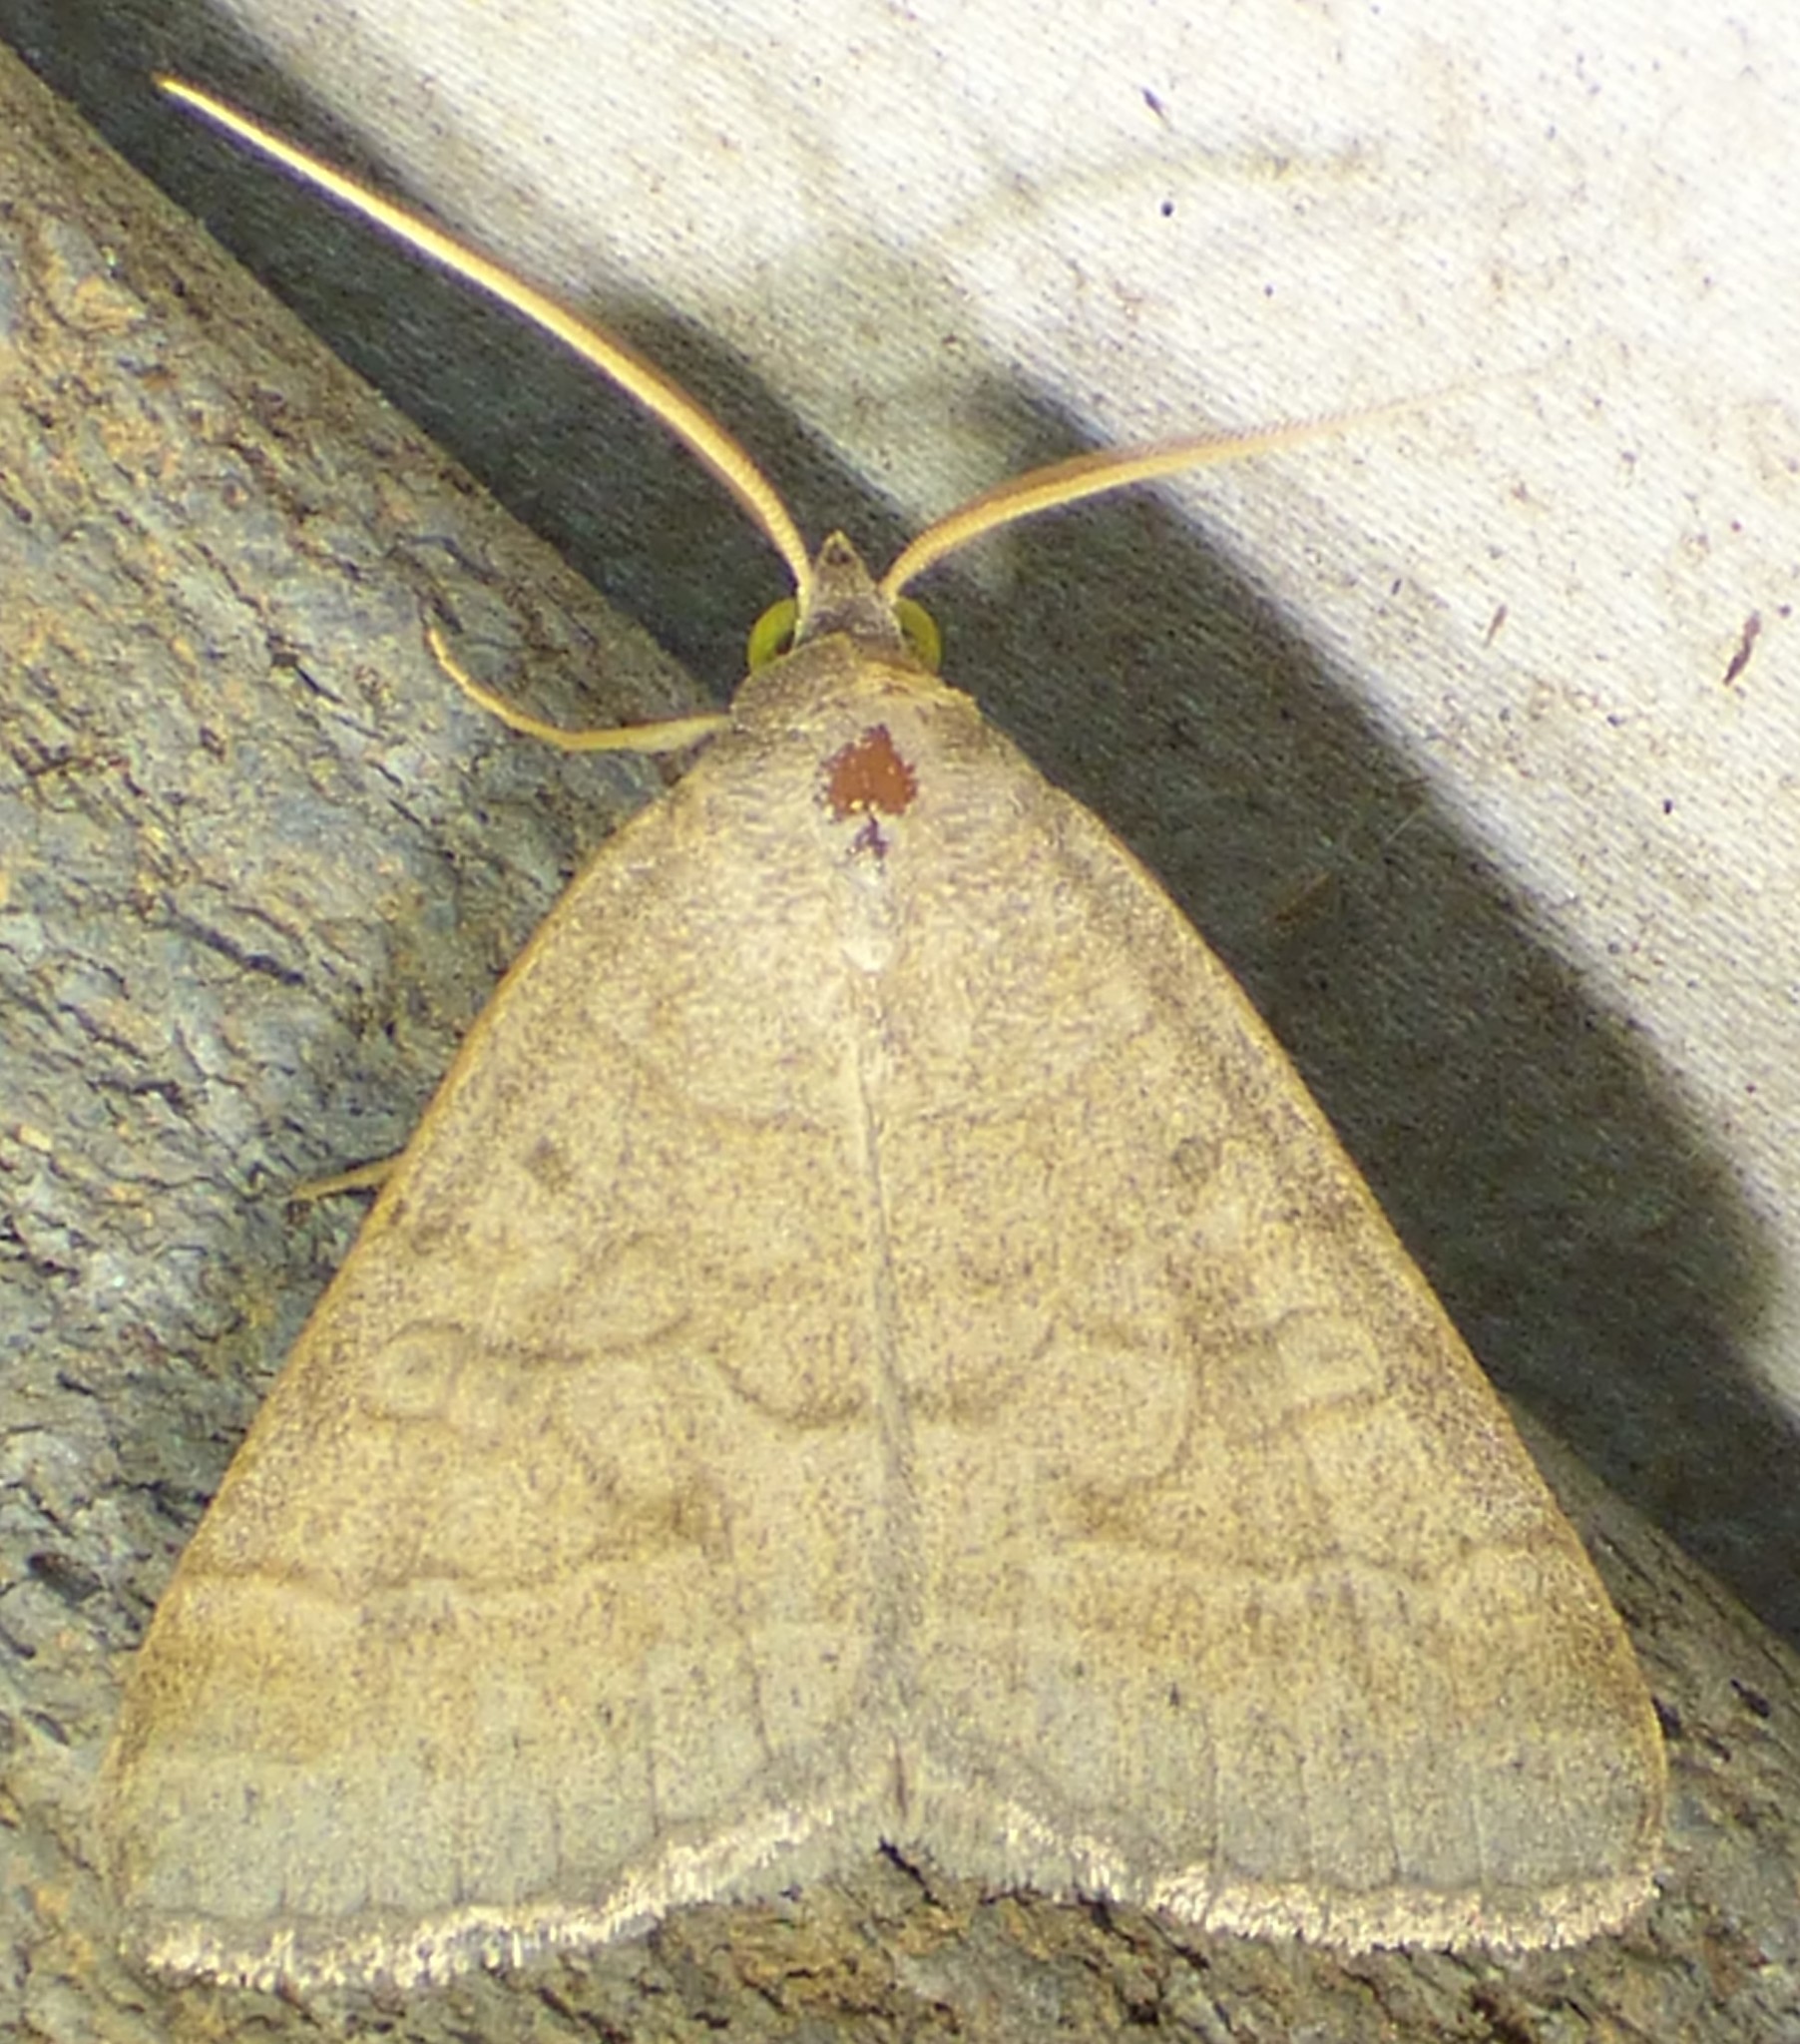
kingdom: Animalia
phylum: Arthropoda
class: Insecta
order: Lepidoptera
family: Erebidae
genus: Caenurgia
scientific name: Caenurgia chloropha
